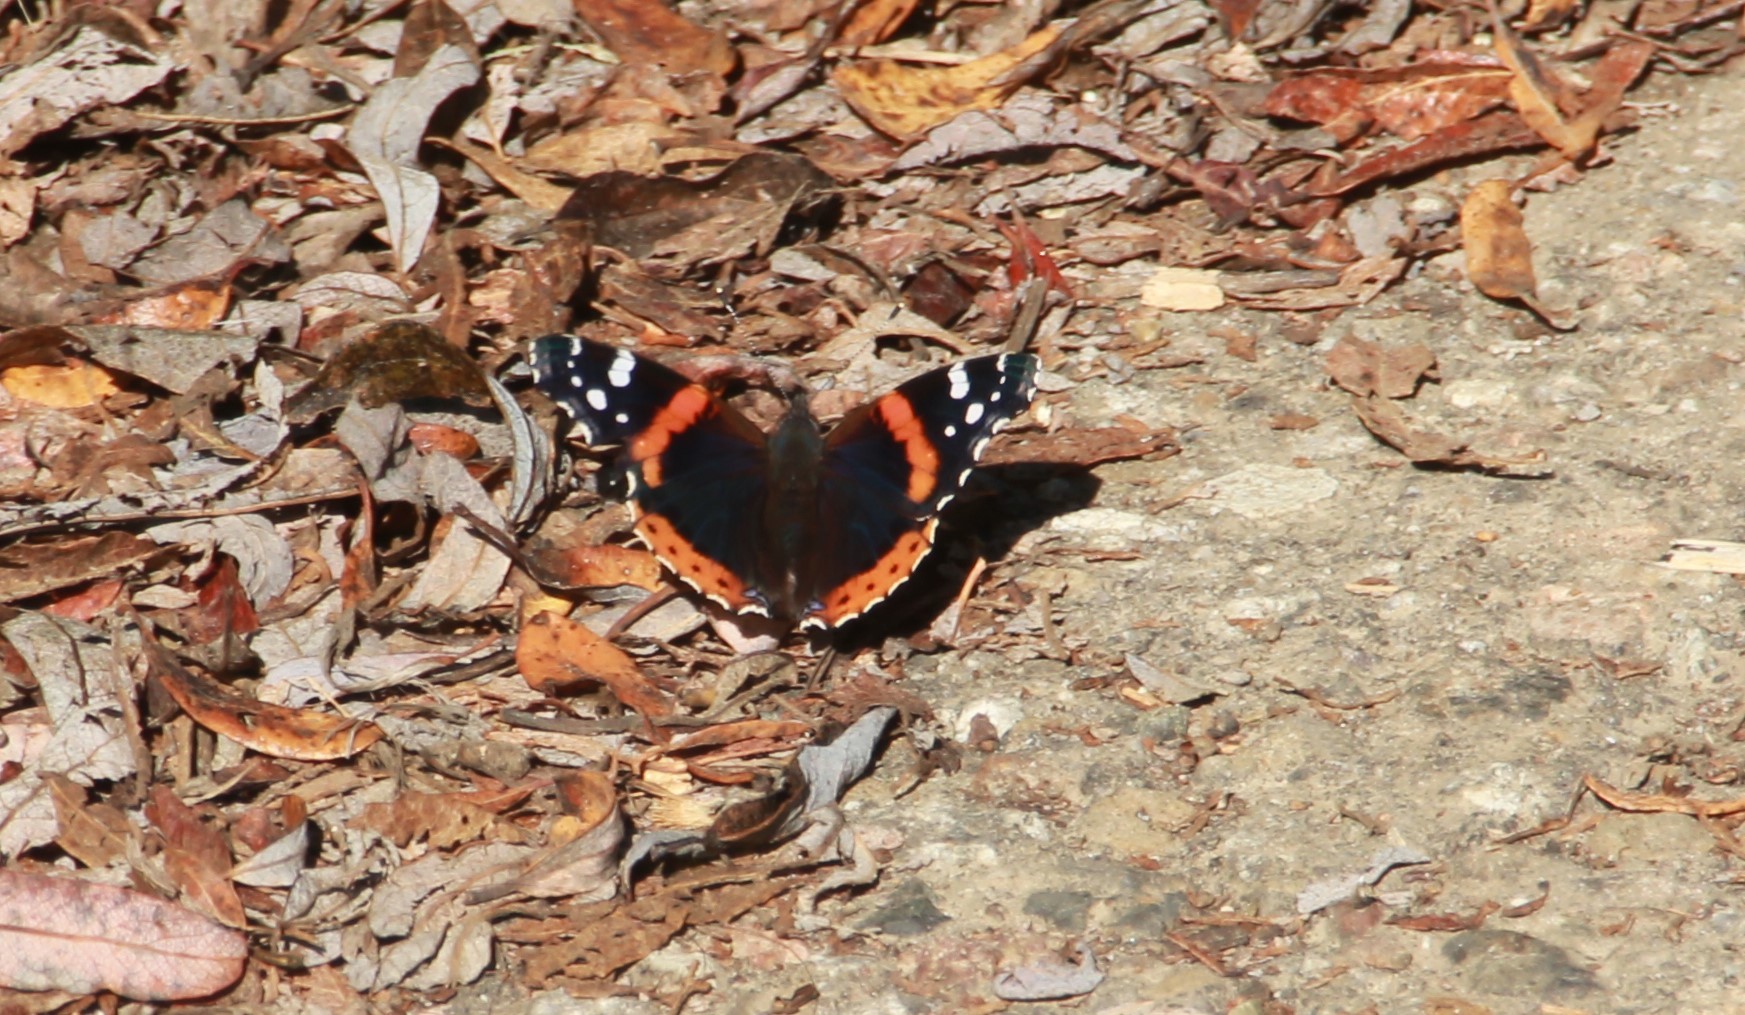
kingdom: Animalia
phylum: Arthropoda
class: Insecta
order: Lepidoptera
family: Nymphalidae
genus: Vanessa
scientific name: Vanessa atalanta
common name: Red admiral
